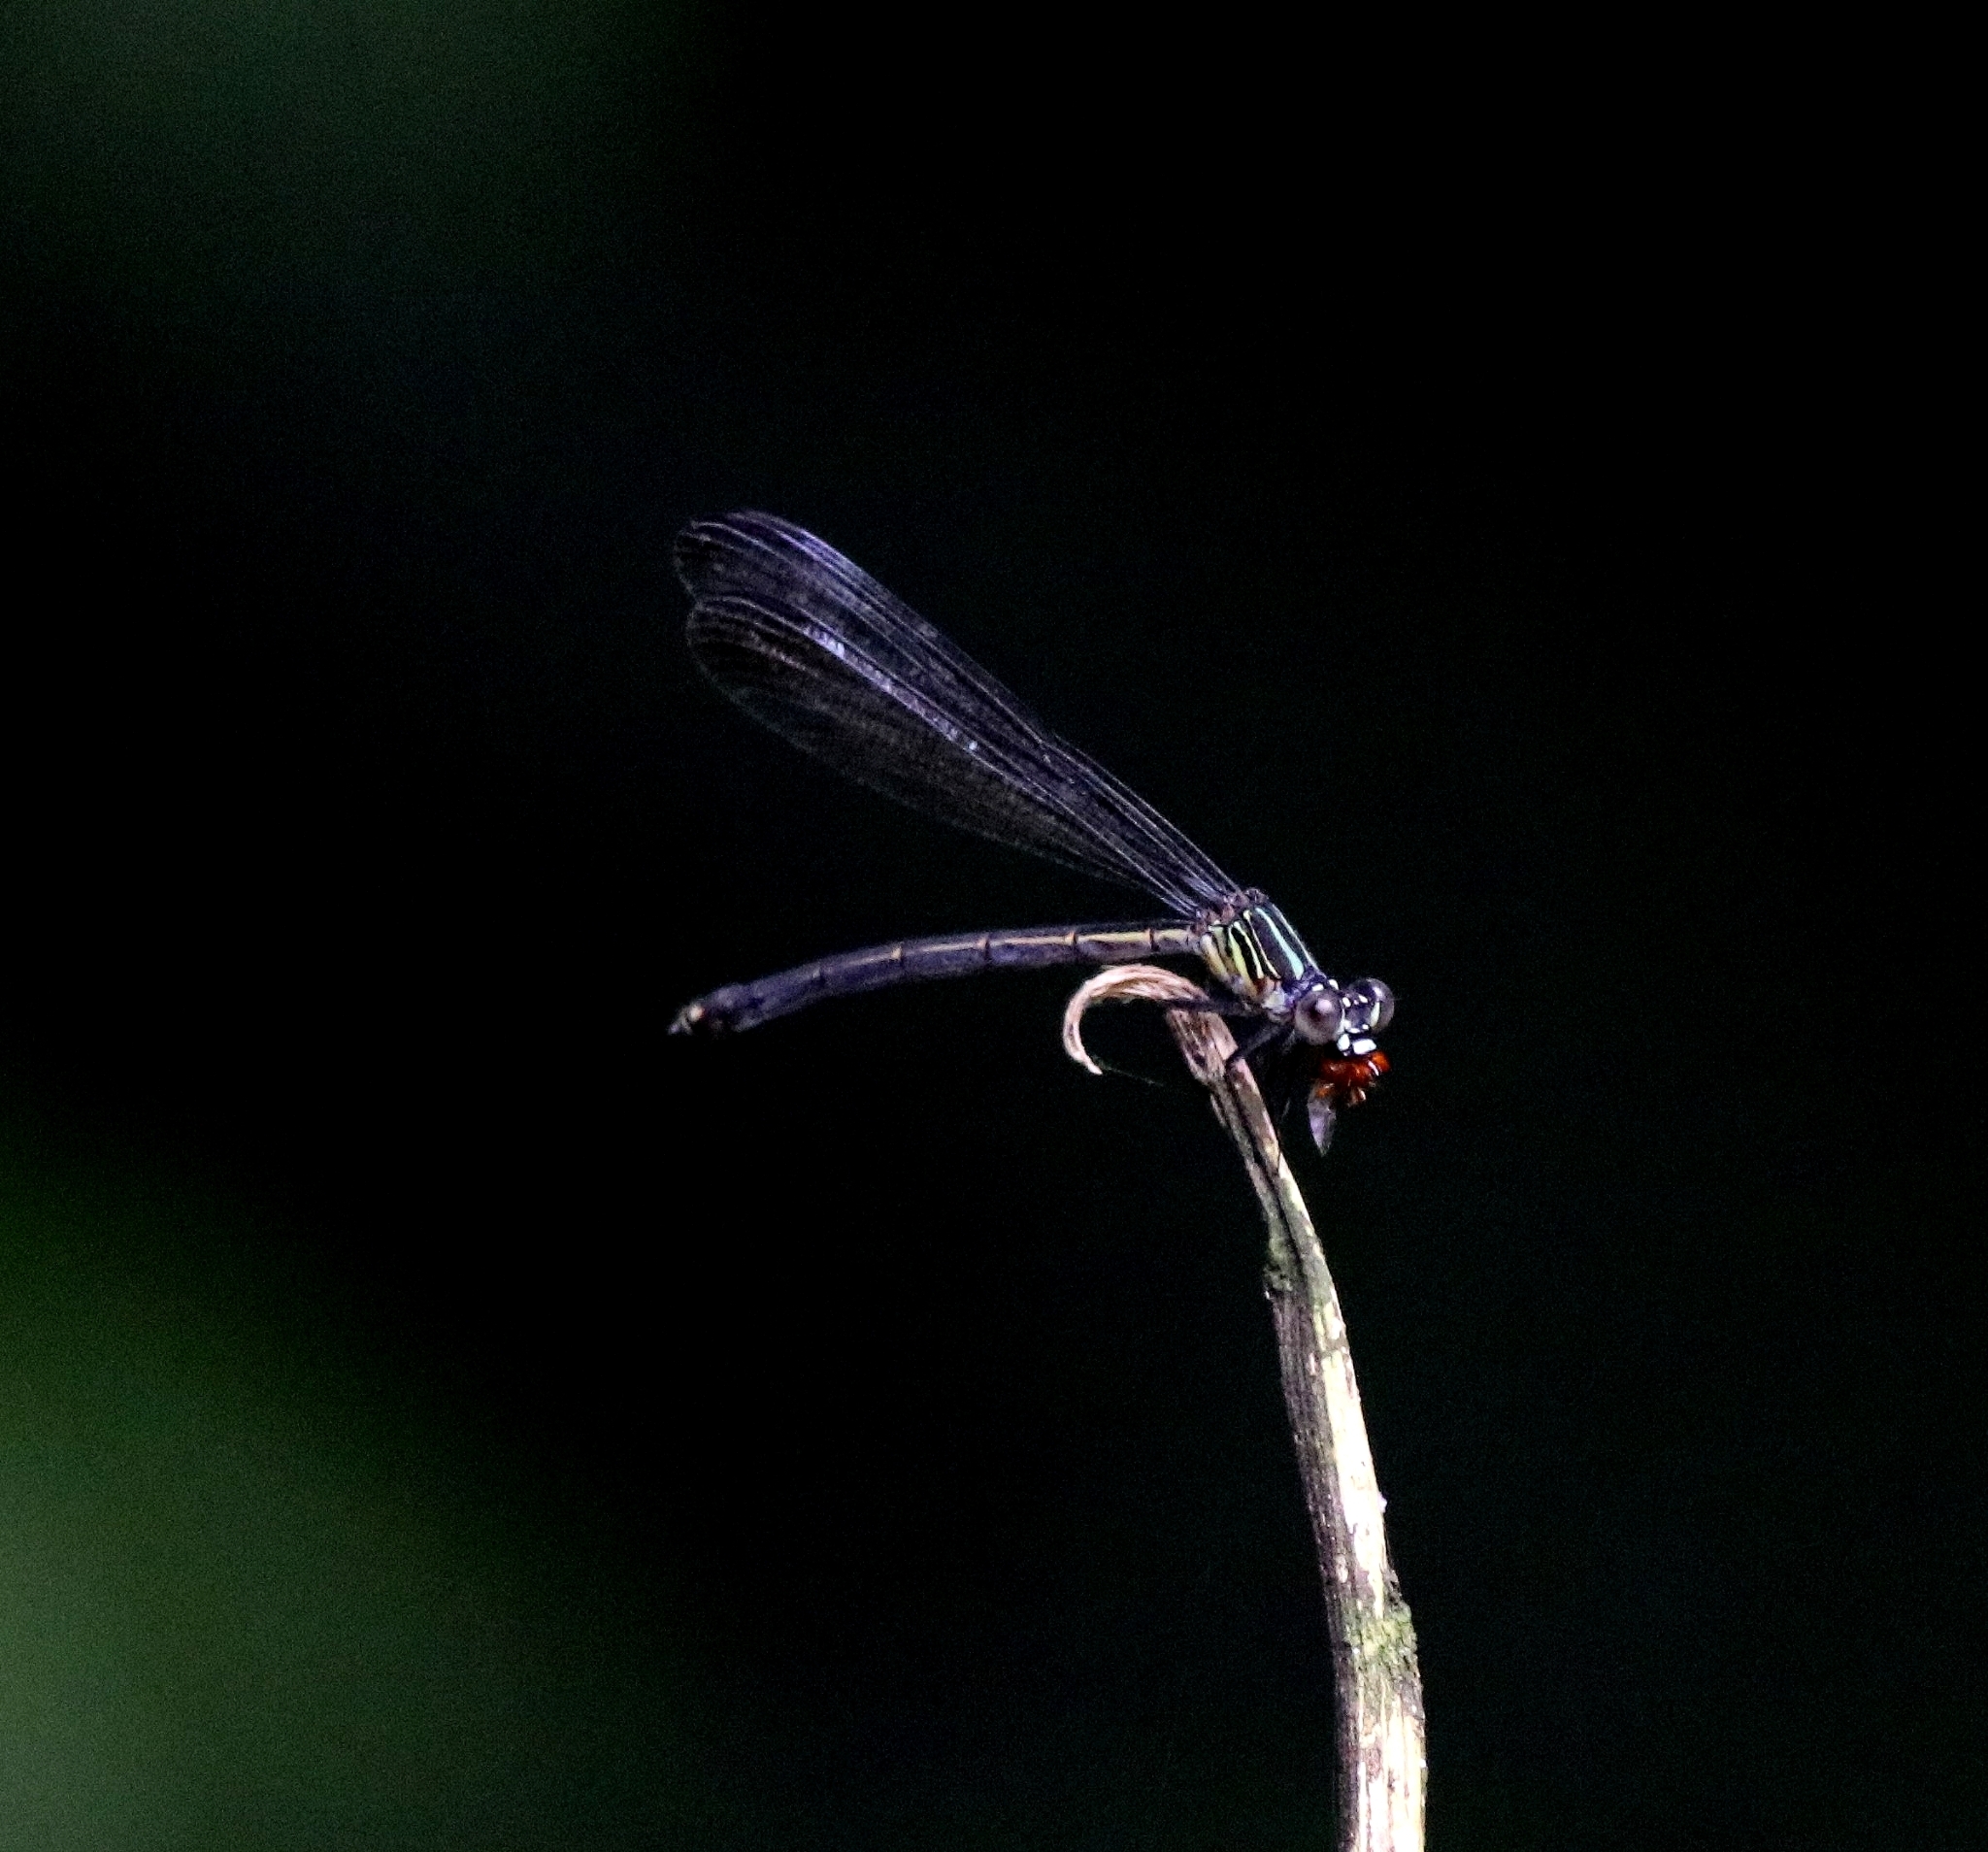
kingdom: Animalia
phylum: Arthropoda
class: Insecta
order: Odonata
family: Euphaeidae
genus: Euphaea
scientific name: Euphaea fraseri
